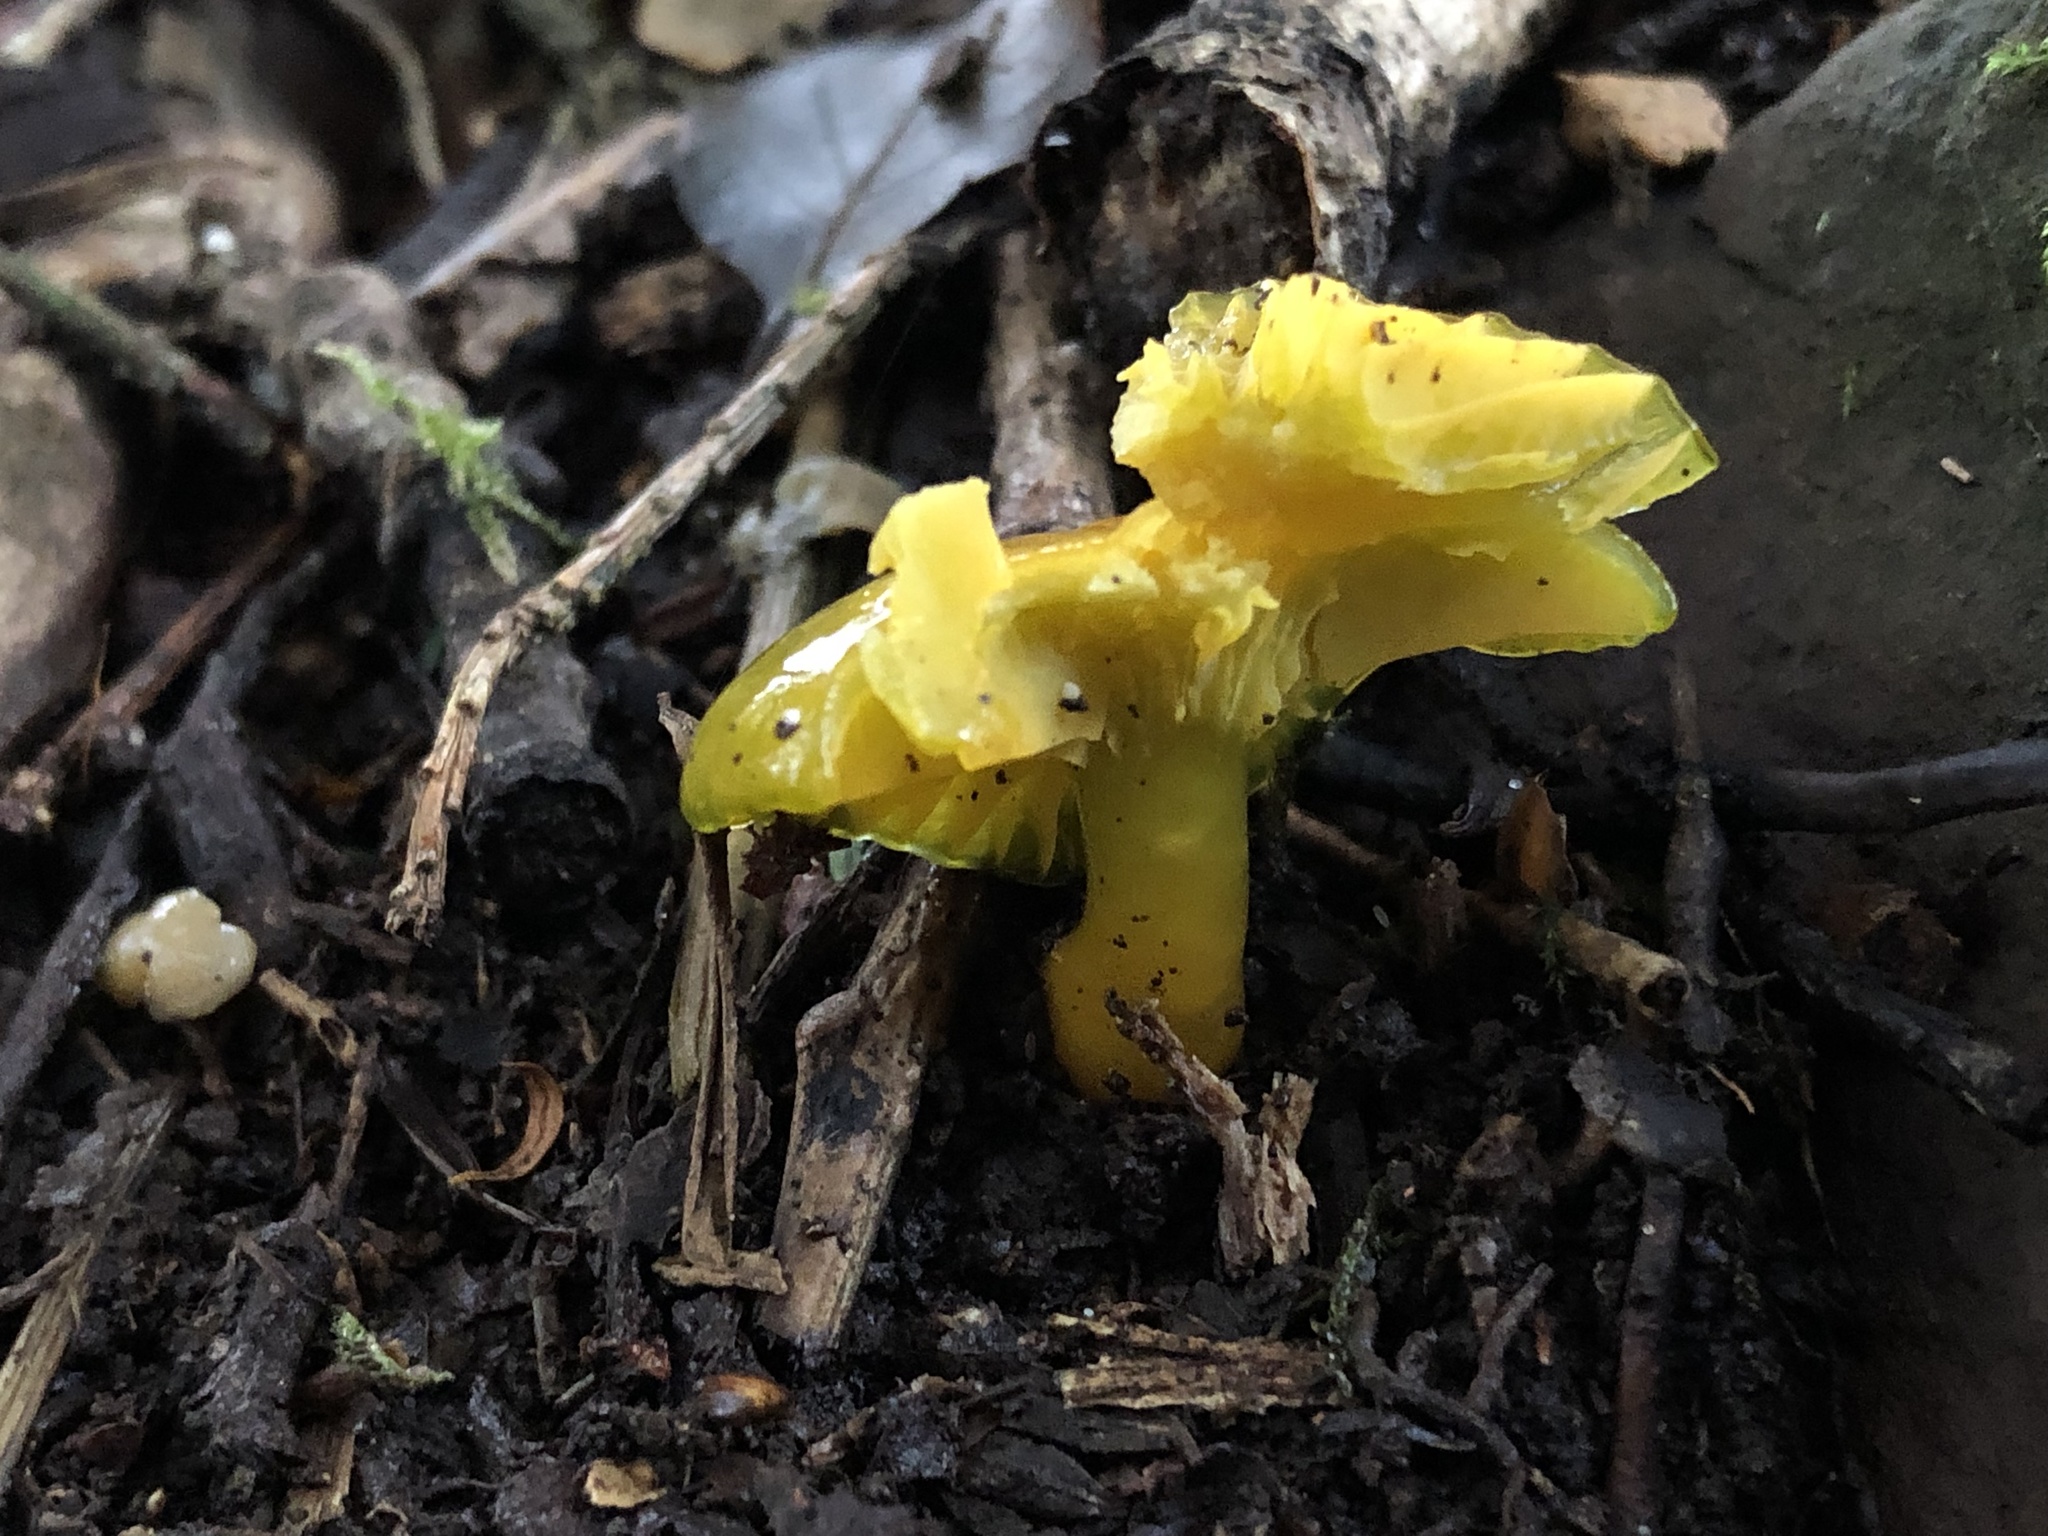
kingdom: Fungi
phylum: Basidiomycota
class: Agaricomycetes
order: Agaricales
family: Hygrophoraceae
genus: Gliophorus
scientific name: Gliophorus psittacinus
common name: Parrot wax-cap
